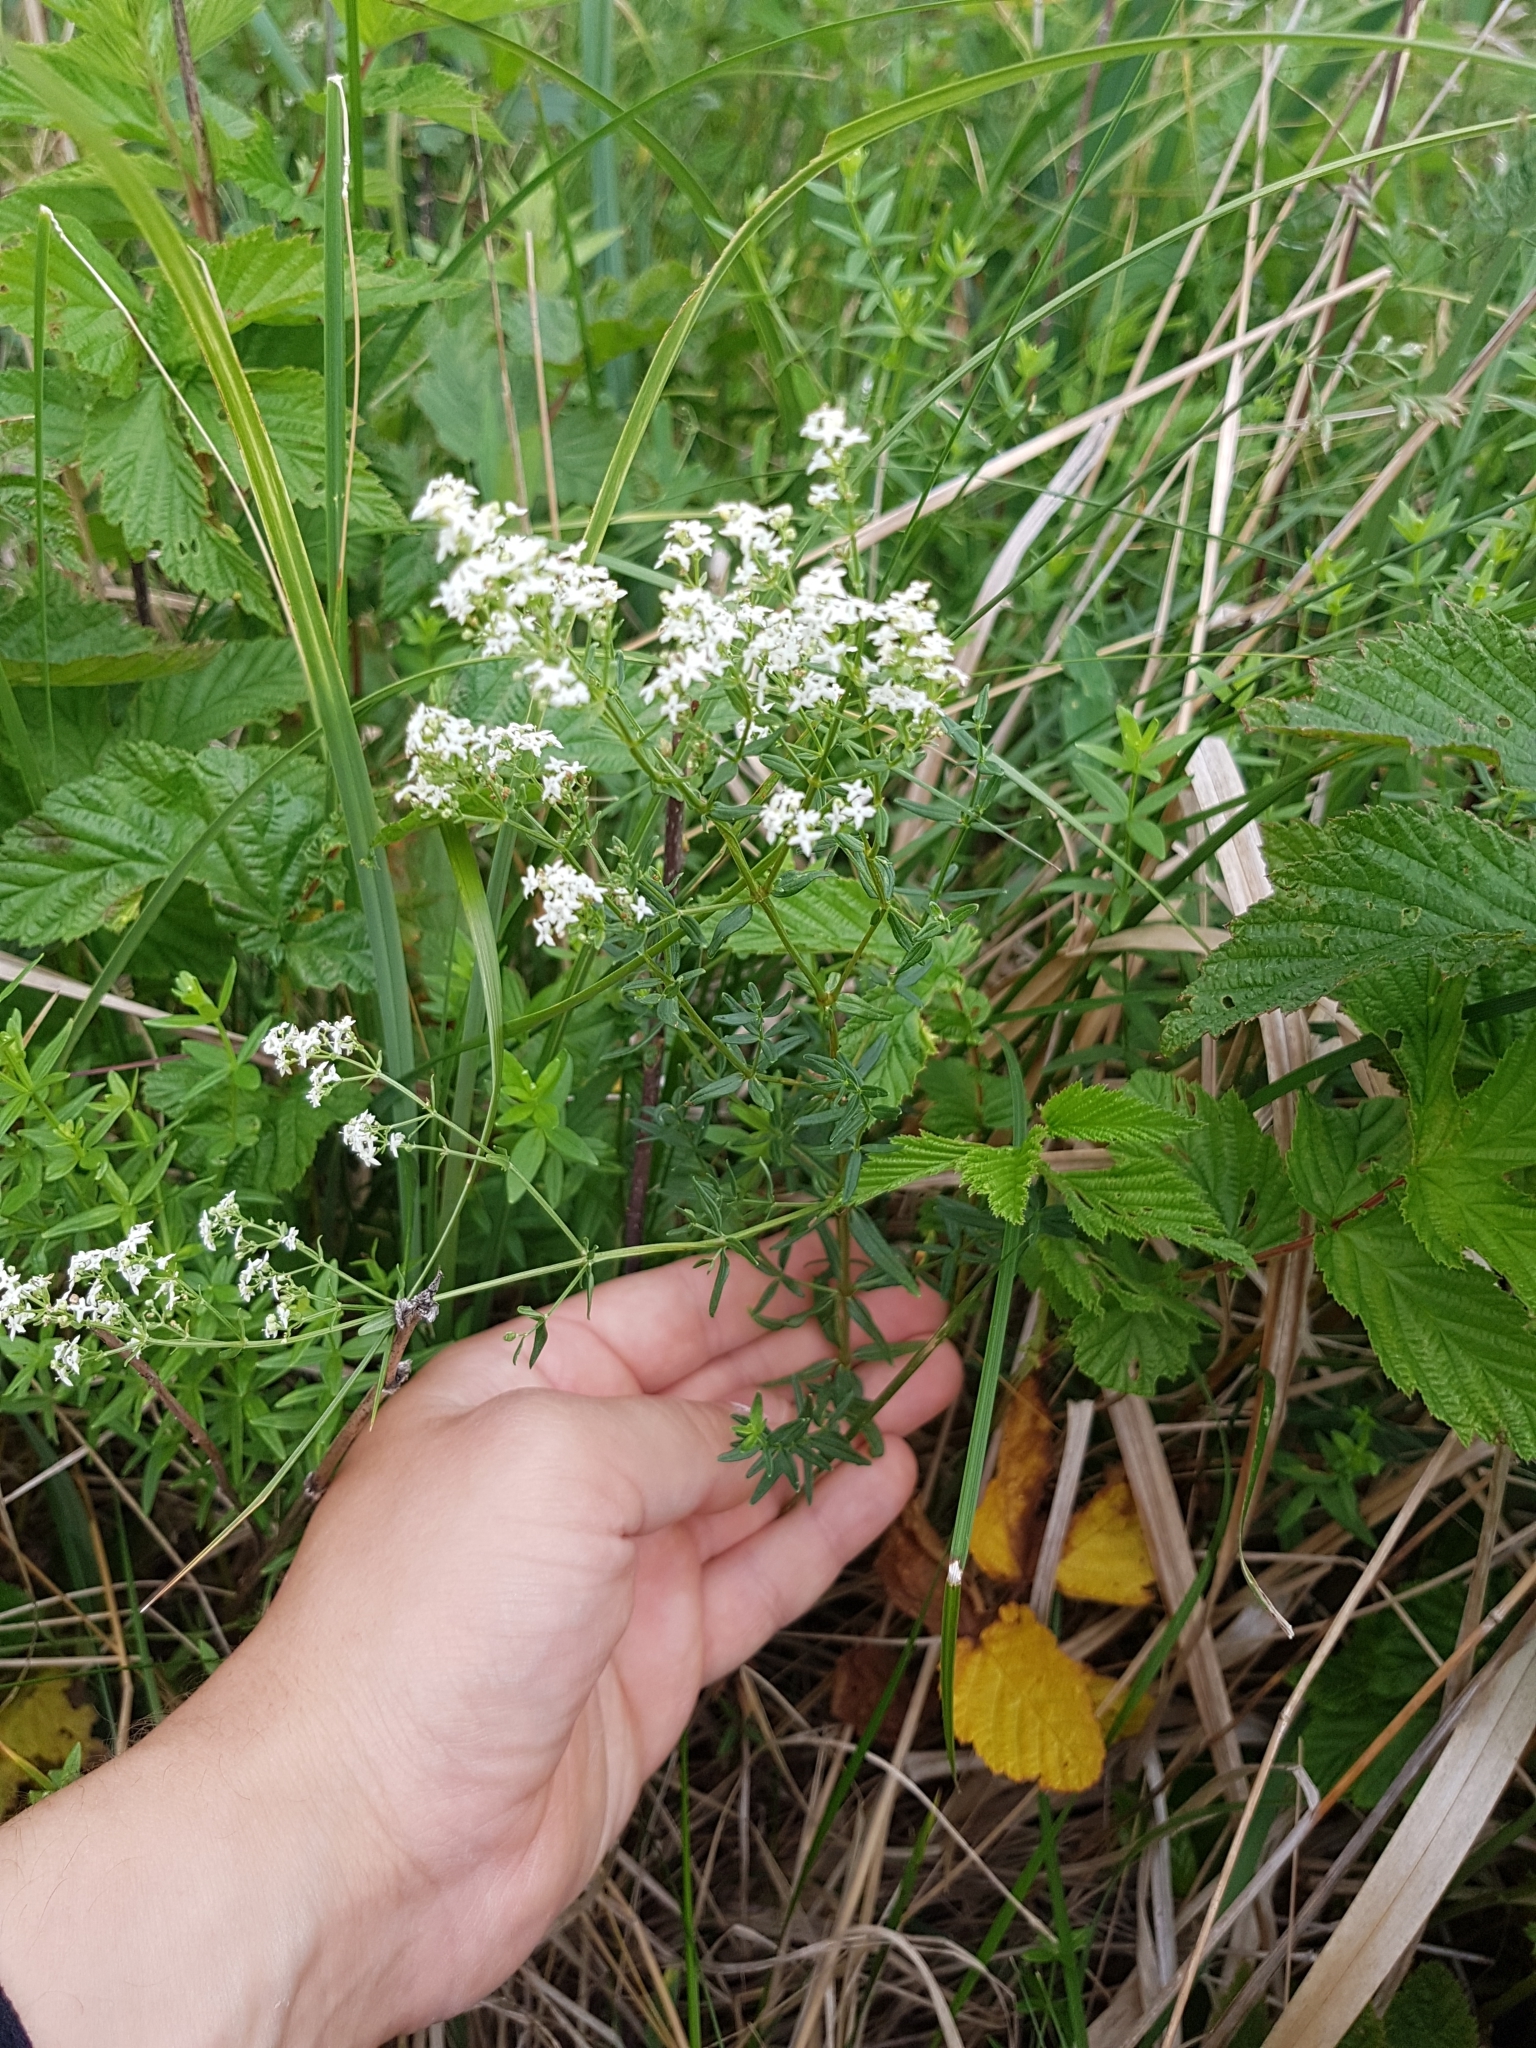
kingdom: Plantae
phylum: Tracheophyta
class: Magnoliopsida
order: Gentianales
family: Rubiaceae
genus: Galium
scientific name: Galium boreale
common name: Northern bedstraw
